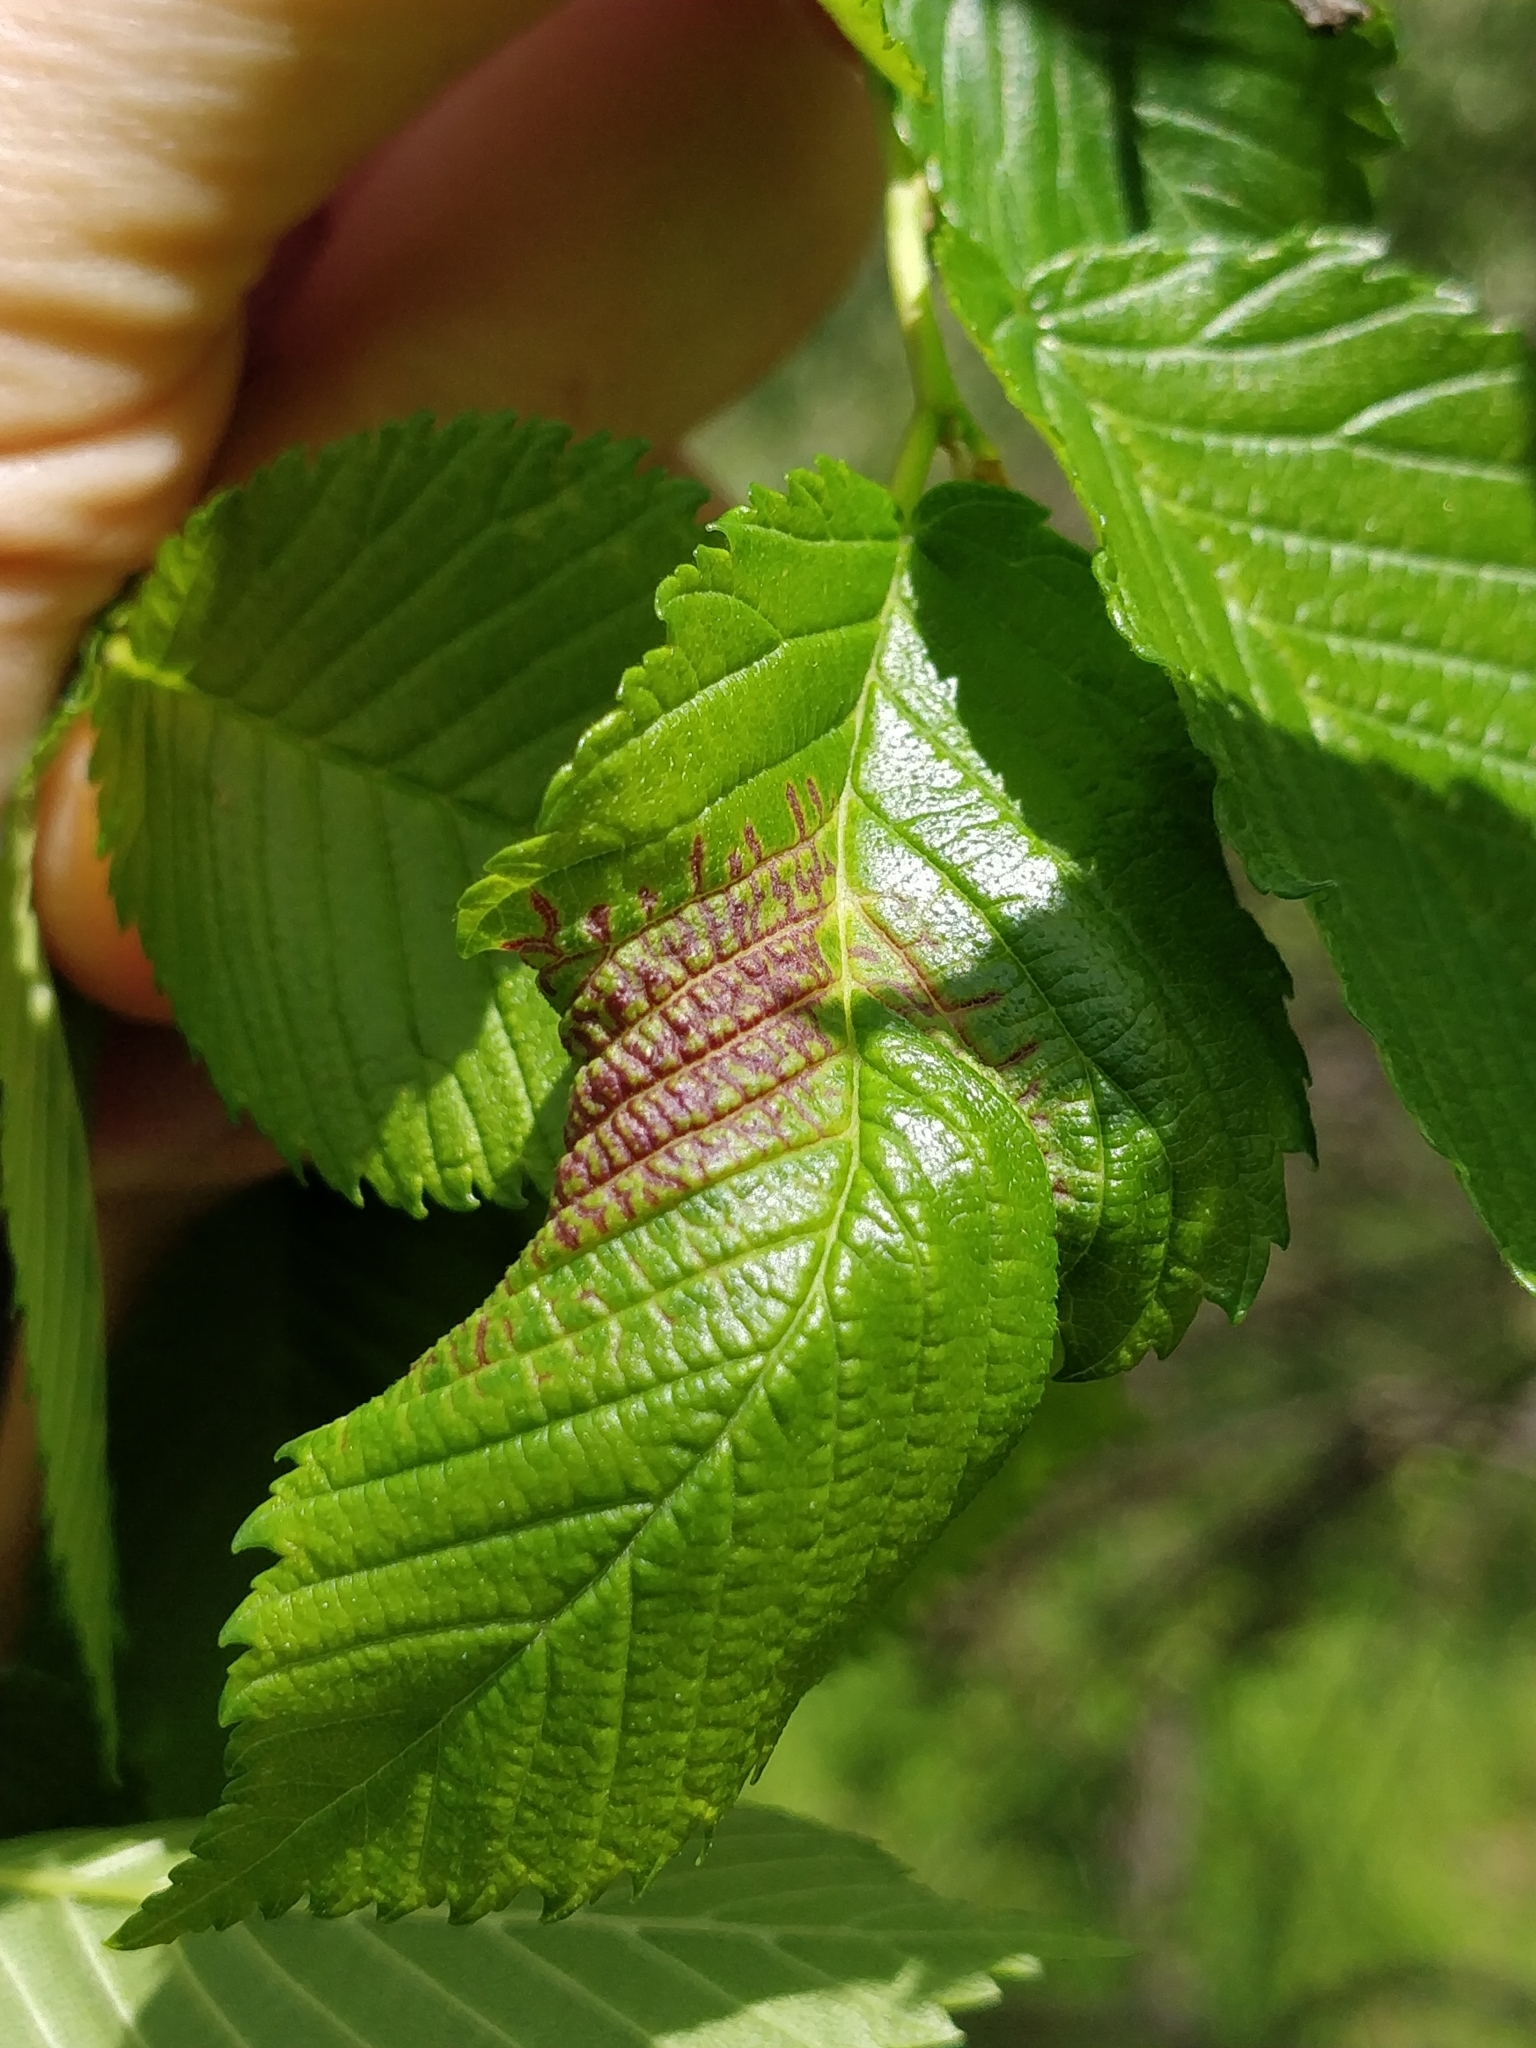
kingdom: Animalia
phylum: Arthropoda
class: Insecta
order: Hemiptera
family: Aphididae
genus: Eriosoma
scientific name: Eriosoma americanum
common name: Woolly elm aphid
